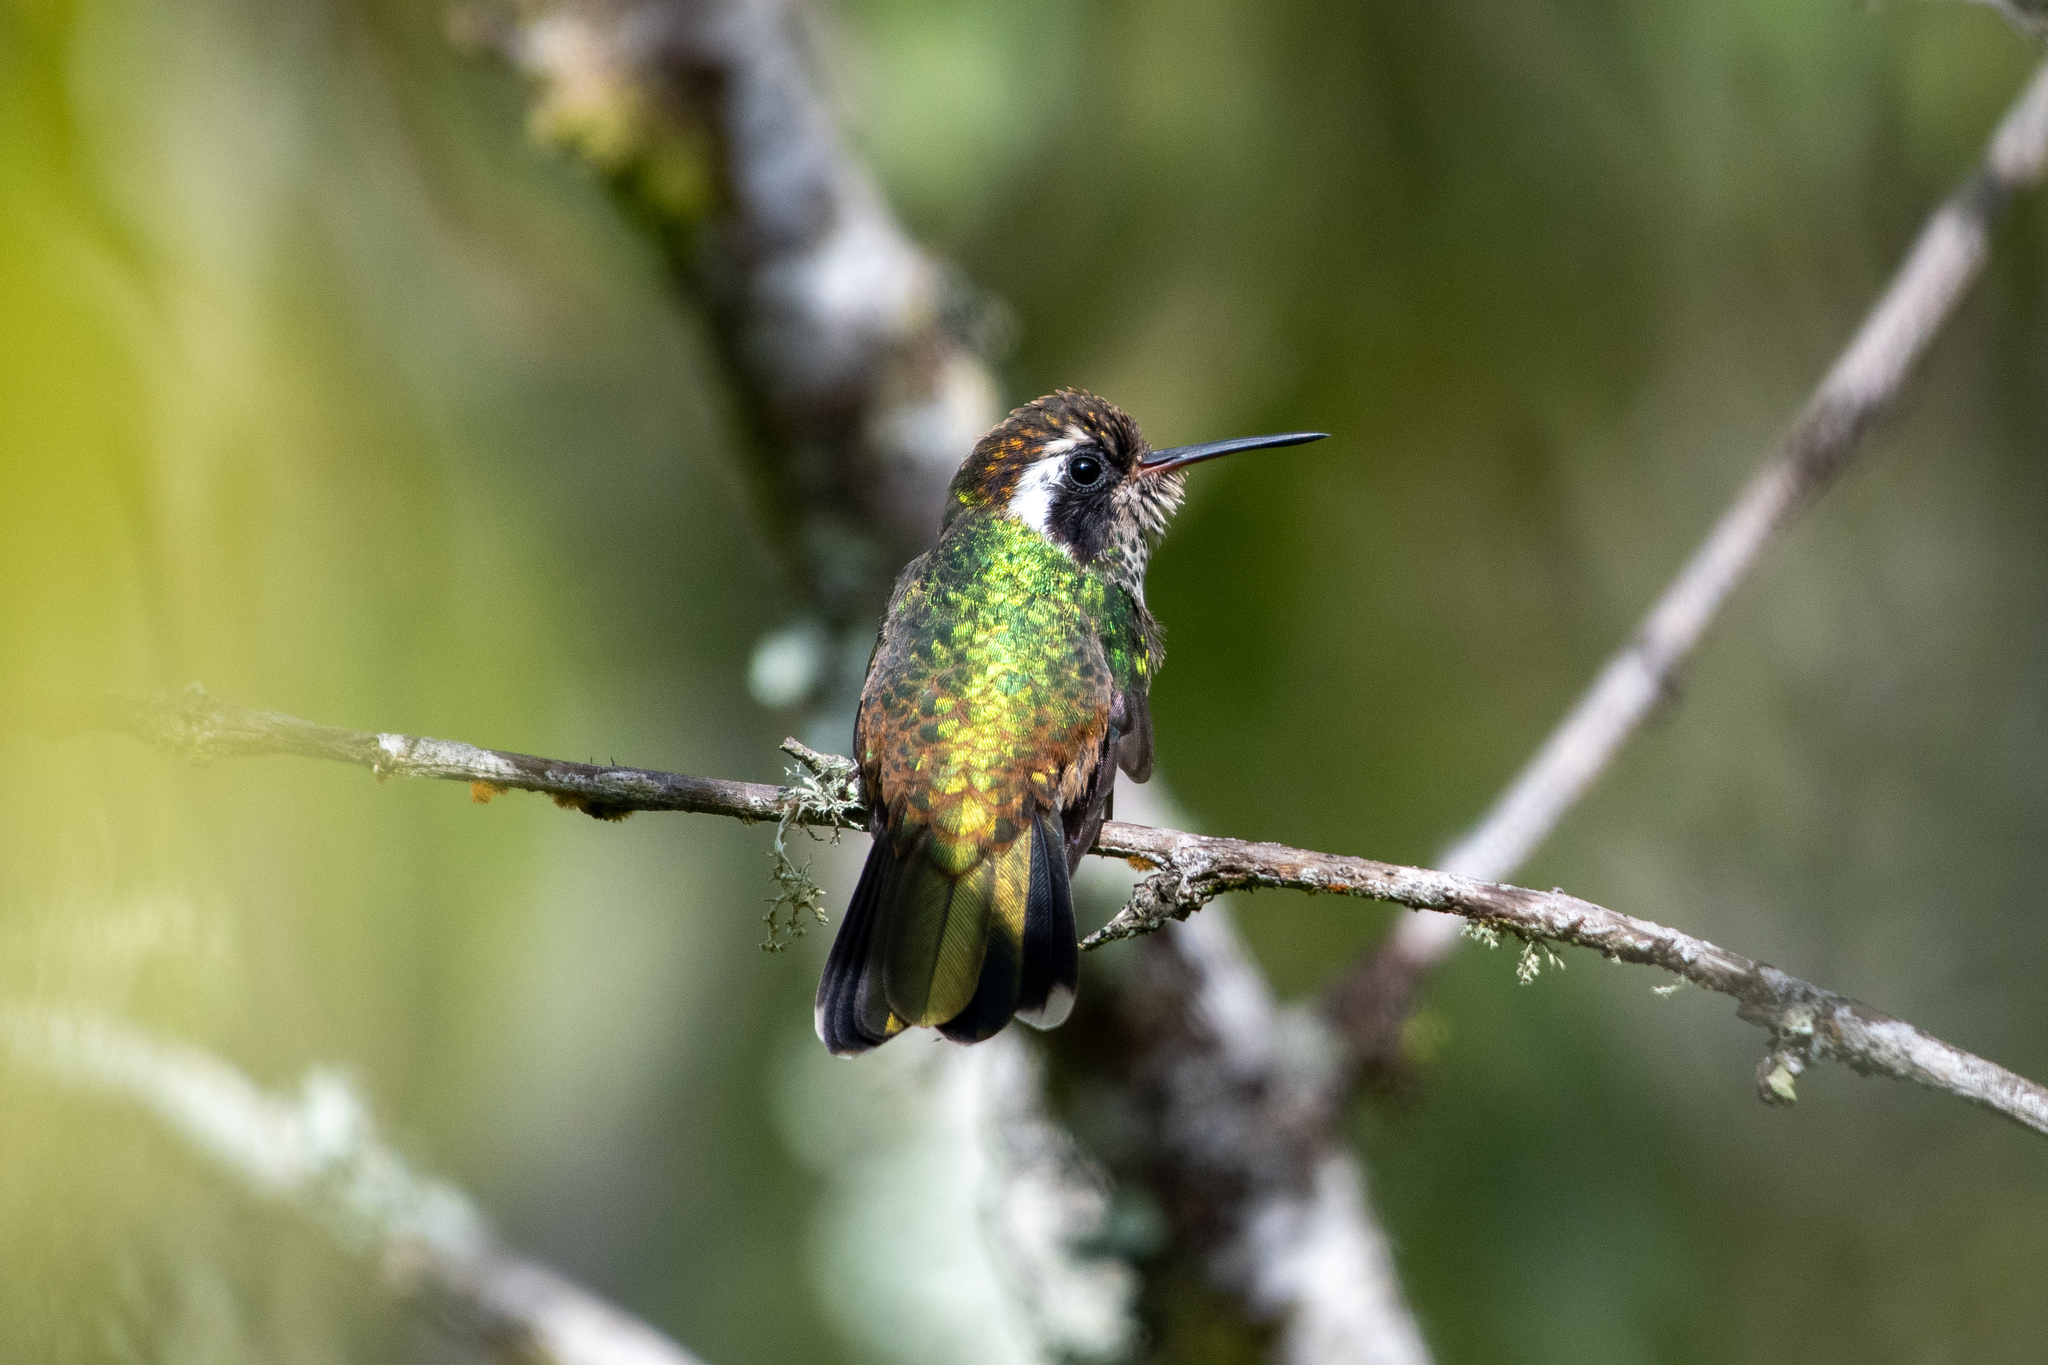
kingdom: Animalia
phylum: Chordata
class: Aves
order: Apodiformes
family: Trochilidae
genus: Basilinna
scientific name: Basilinna leucotis
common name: White-eared hummingbird
